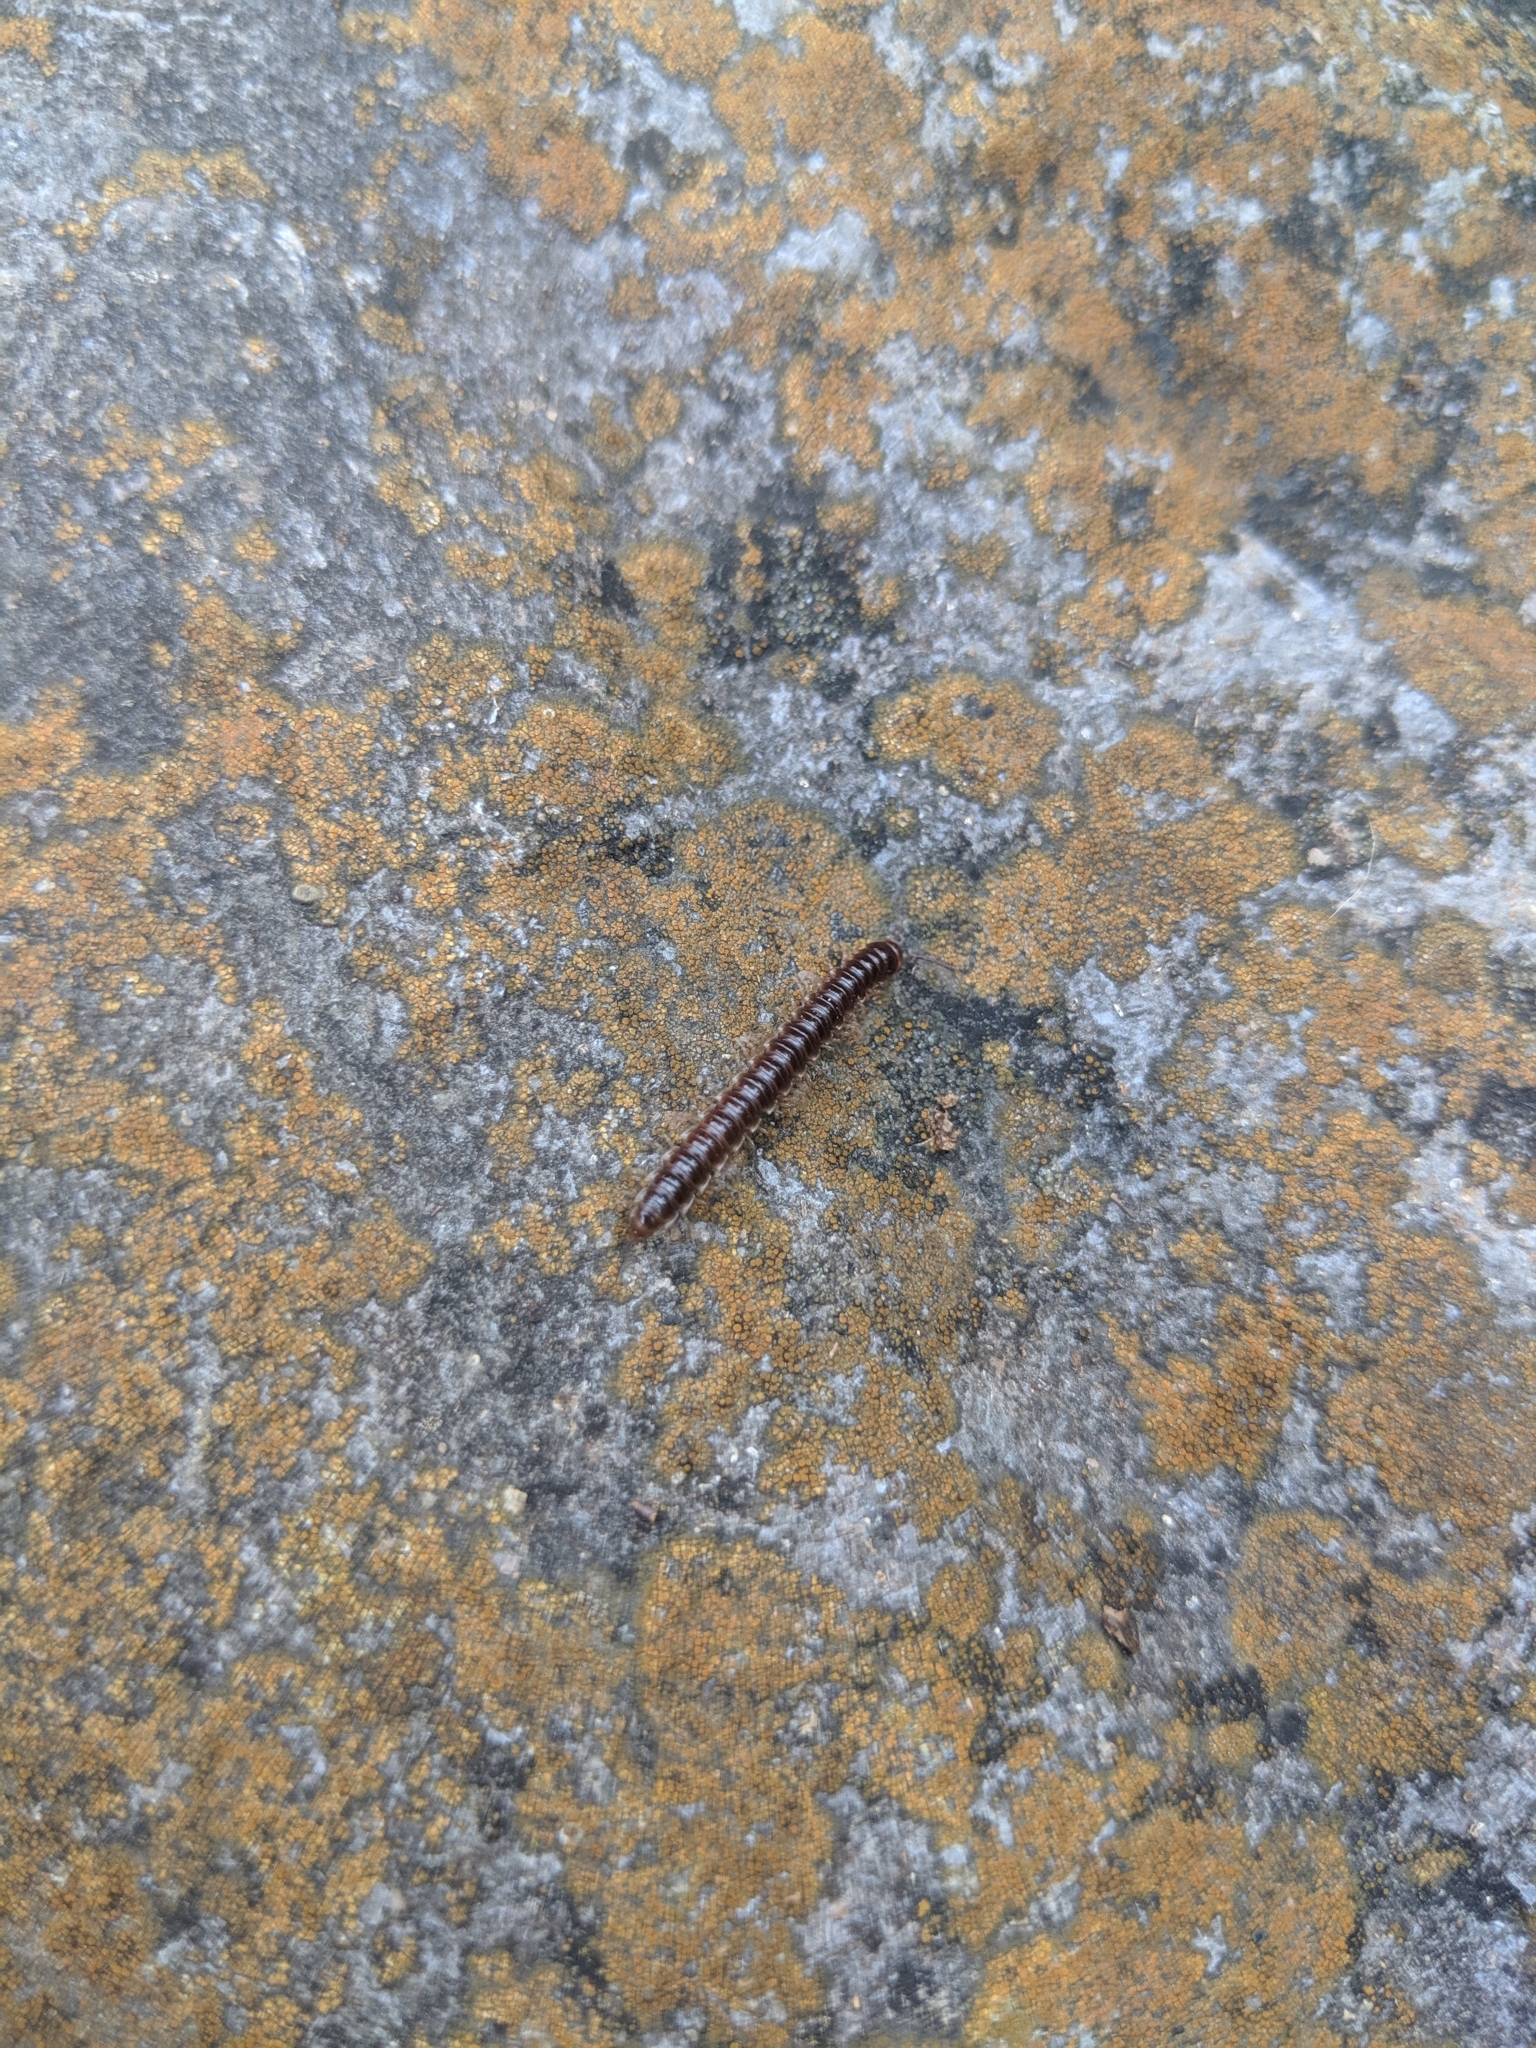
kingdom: Animalia
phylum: Arthropoda
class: Diplopoda
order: Polydesmida
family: Paradoxosomatidae
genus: Oxidus
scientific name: Oxidus gracilis
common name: Greenhouse millipede
